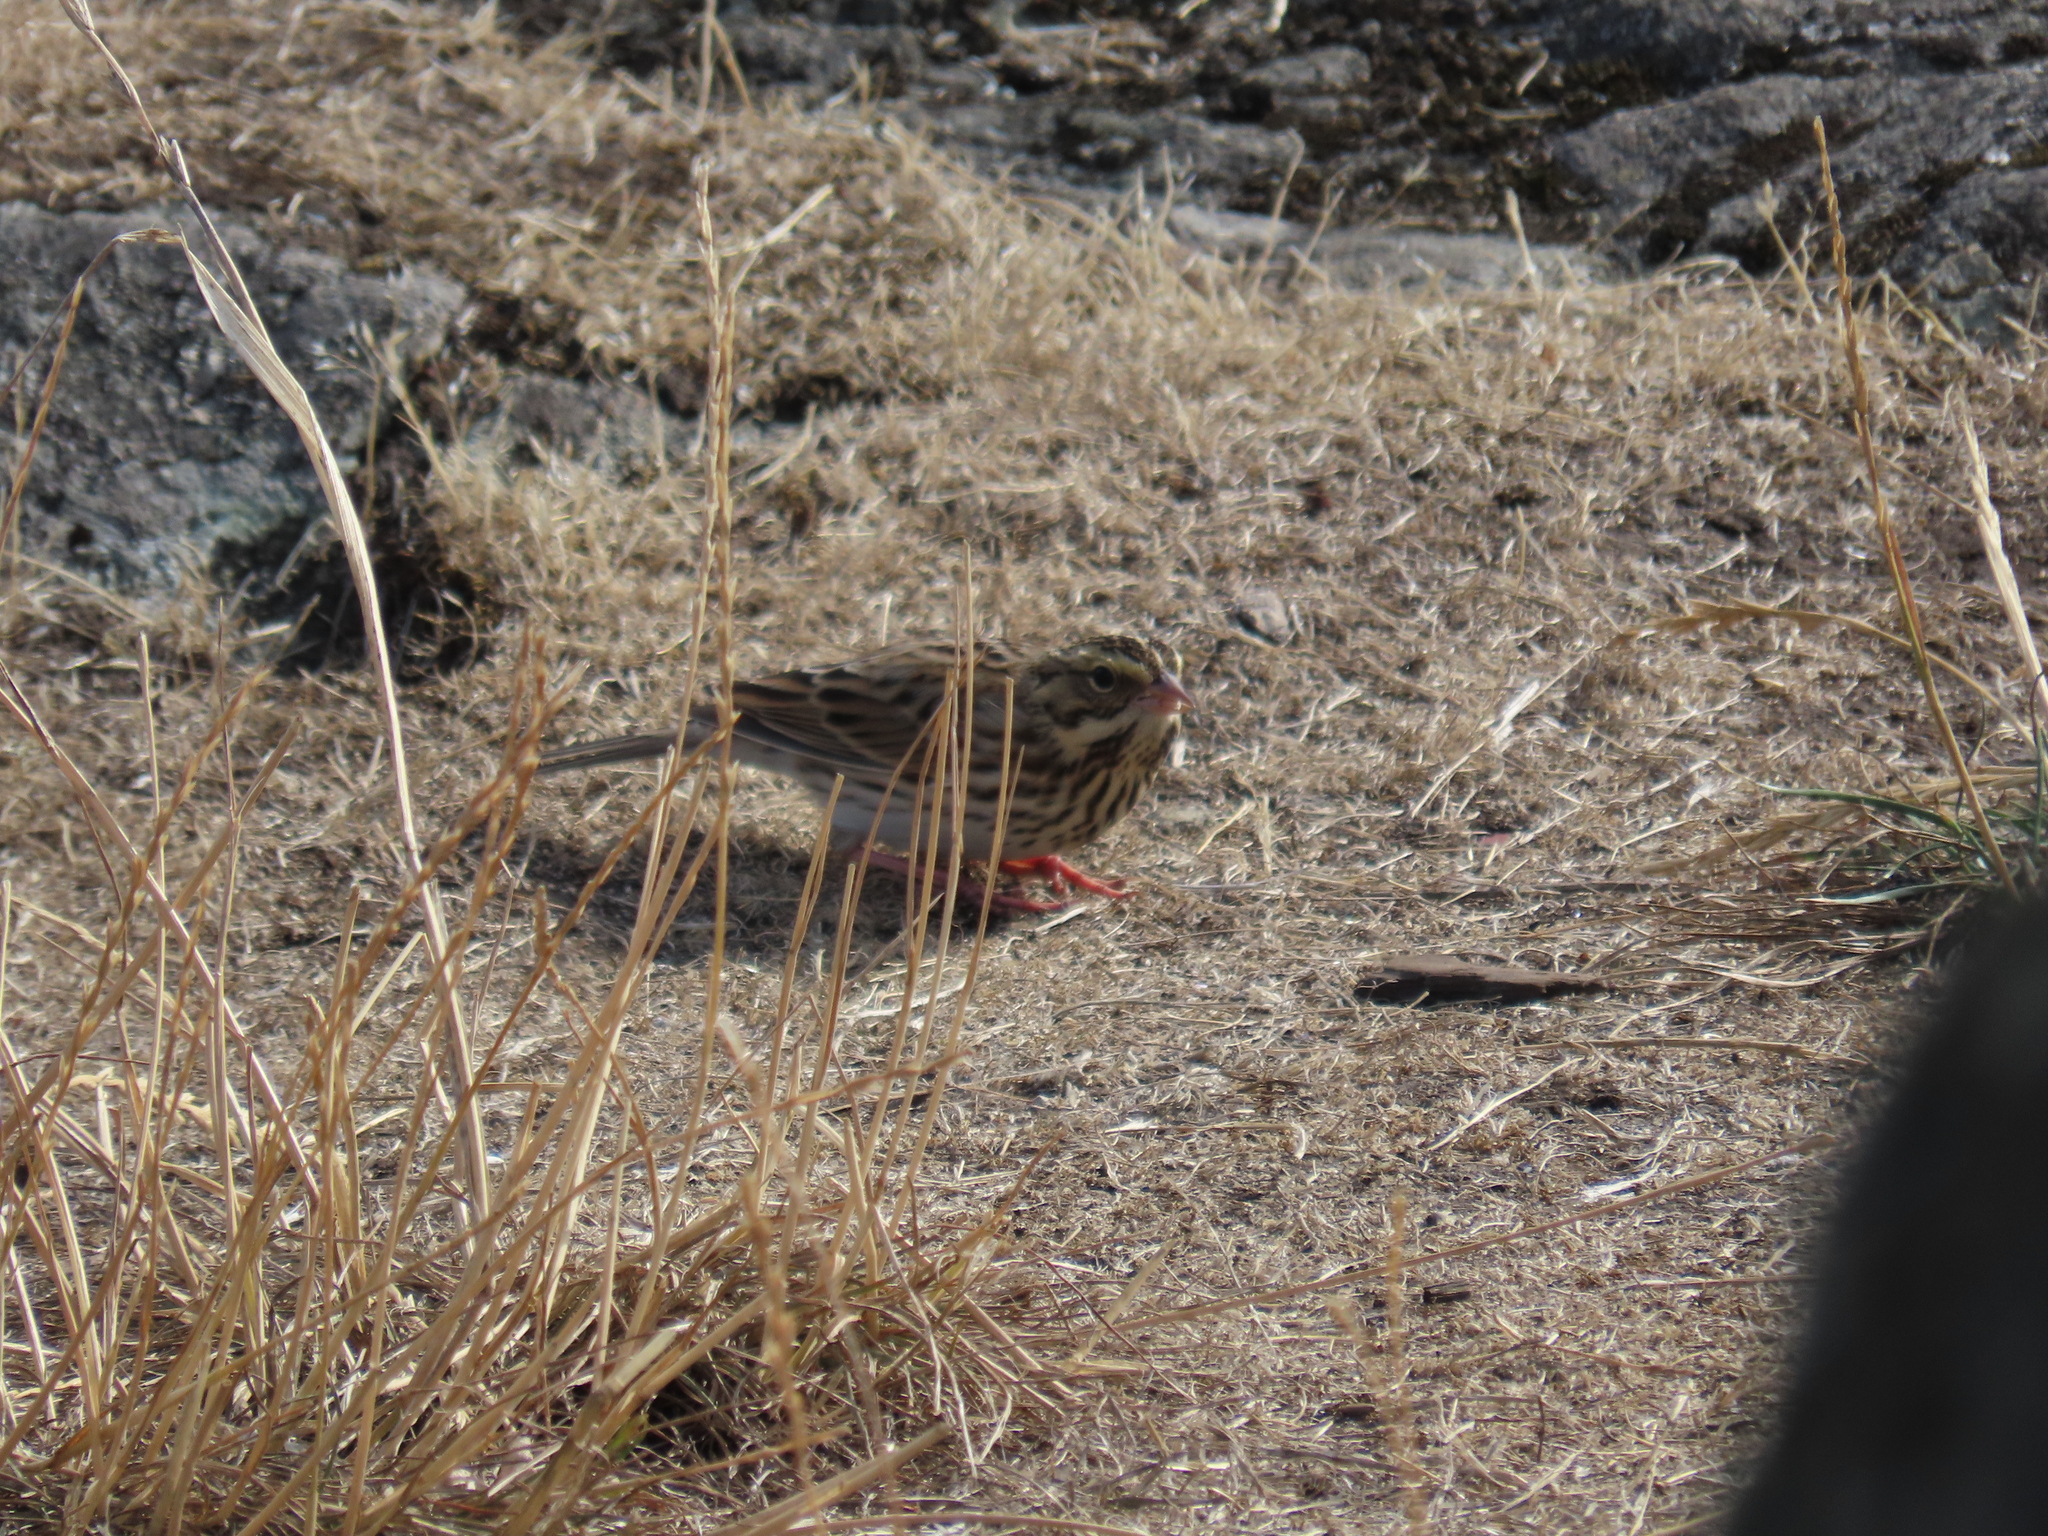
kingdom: Animalia
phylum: Chordata
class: Aves
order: Passeriformes
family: Passerellidae
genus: Passerculus
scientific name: Passerculus sandwichensis
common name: Savannah sparrow
